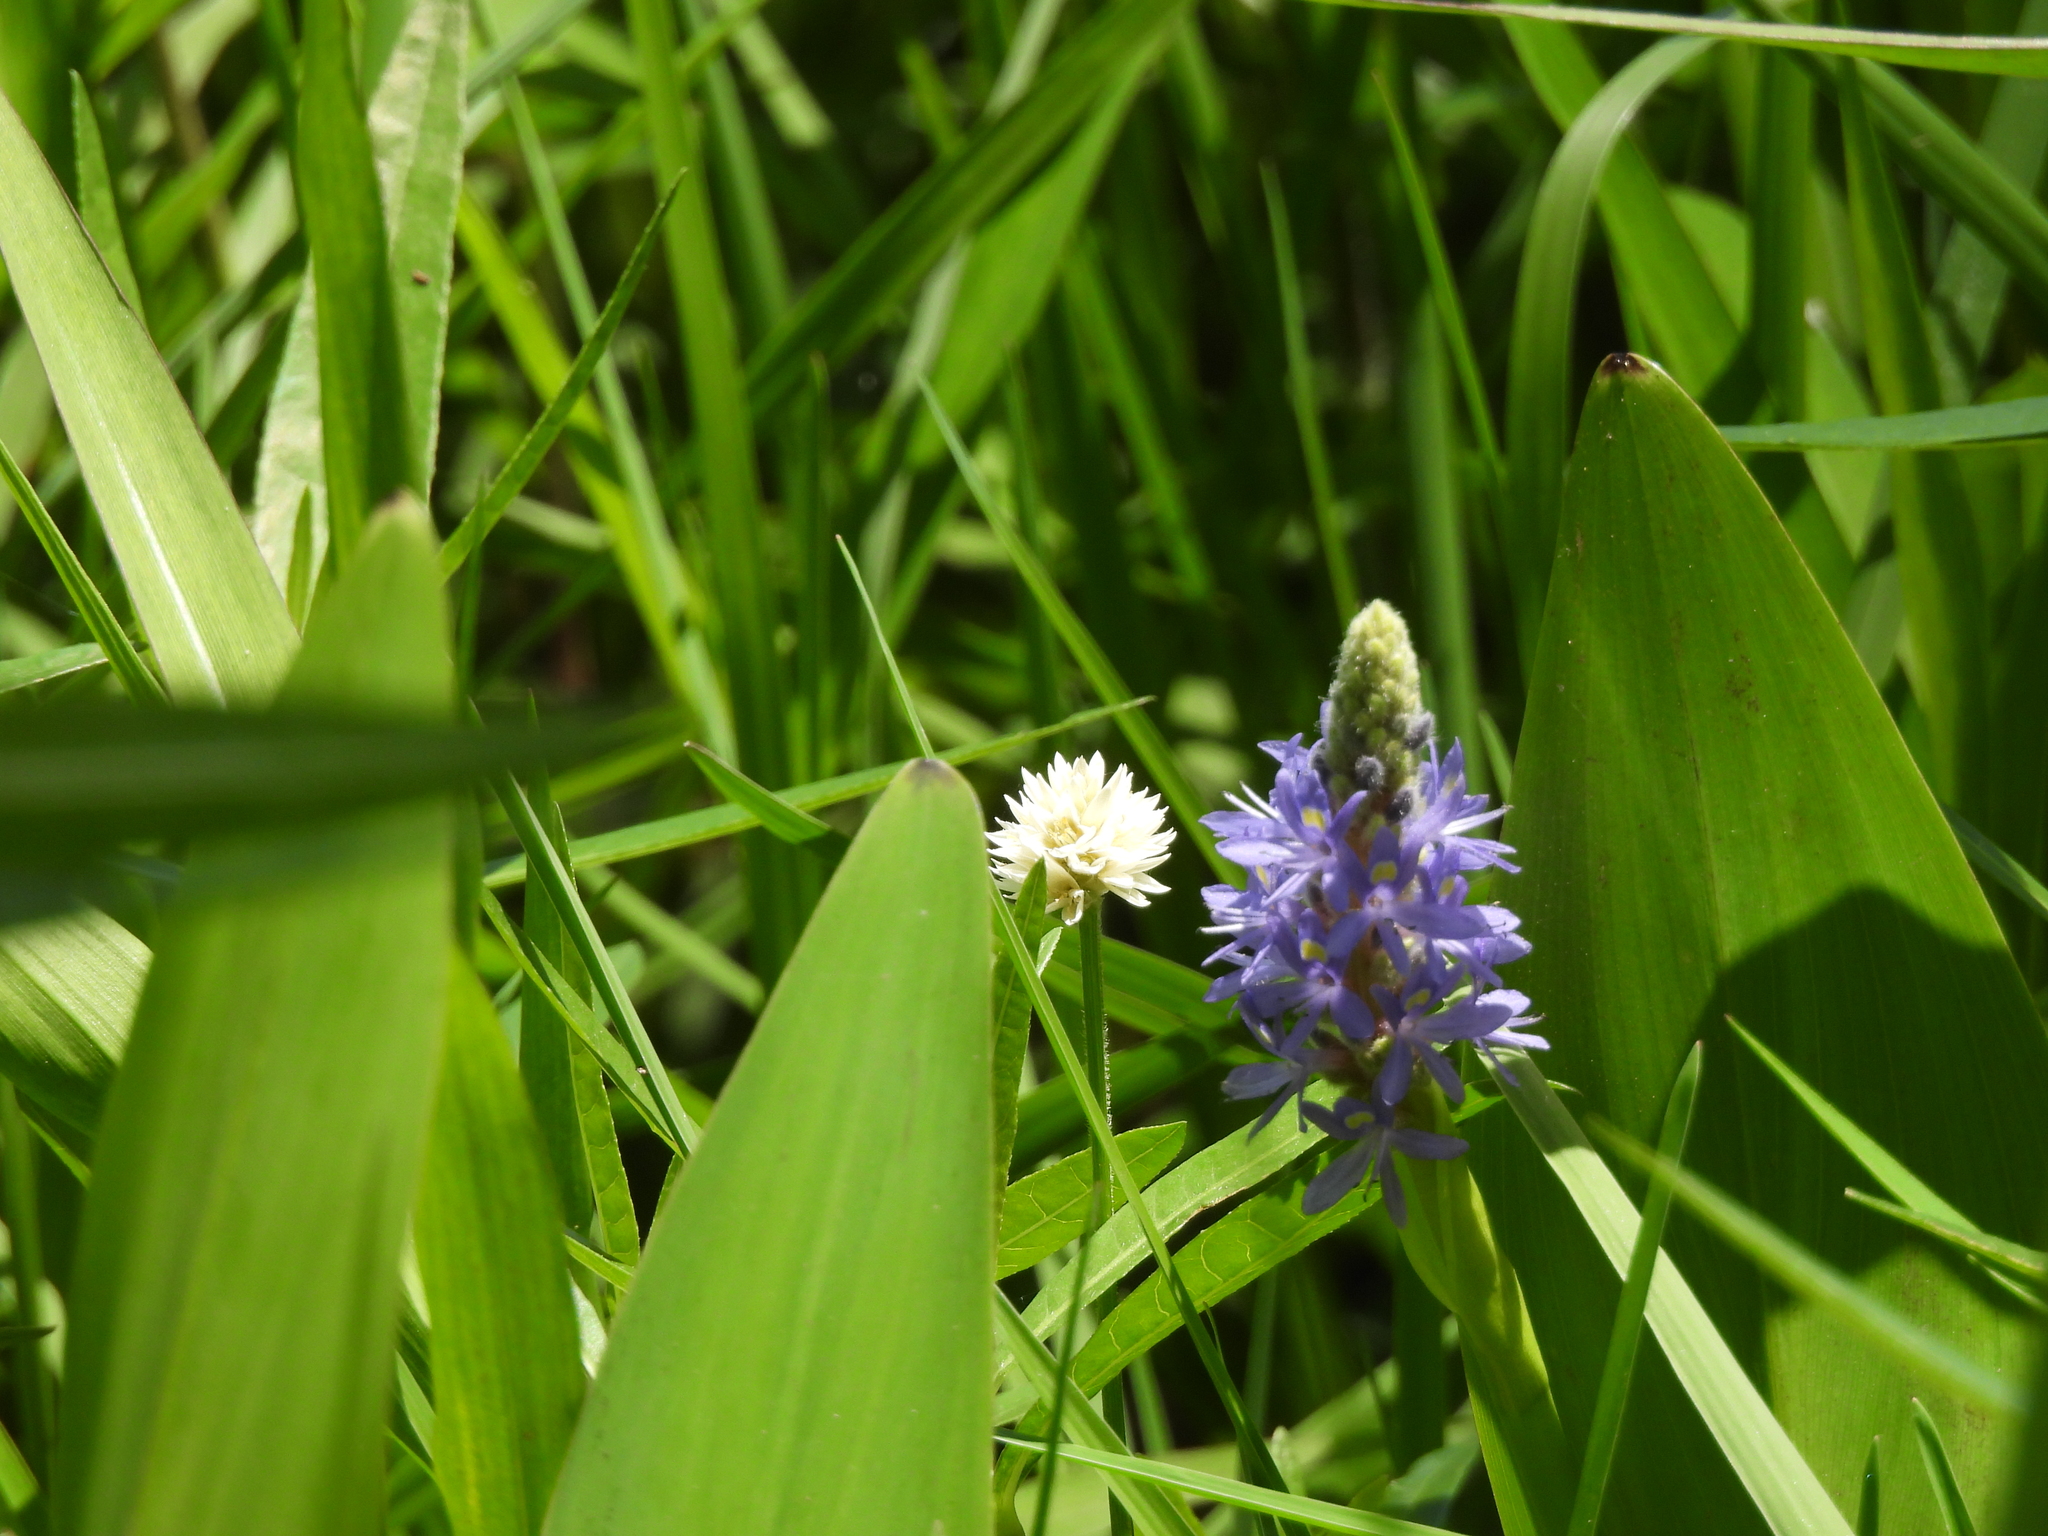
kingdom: Plantae
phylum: Tracheophyta
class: Liliopsida
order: Commelinales
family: Pontederiaceae
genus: Pontederia
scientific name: Pontederia cordata
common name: Pickerelweed
